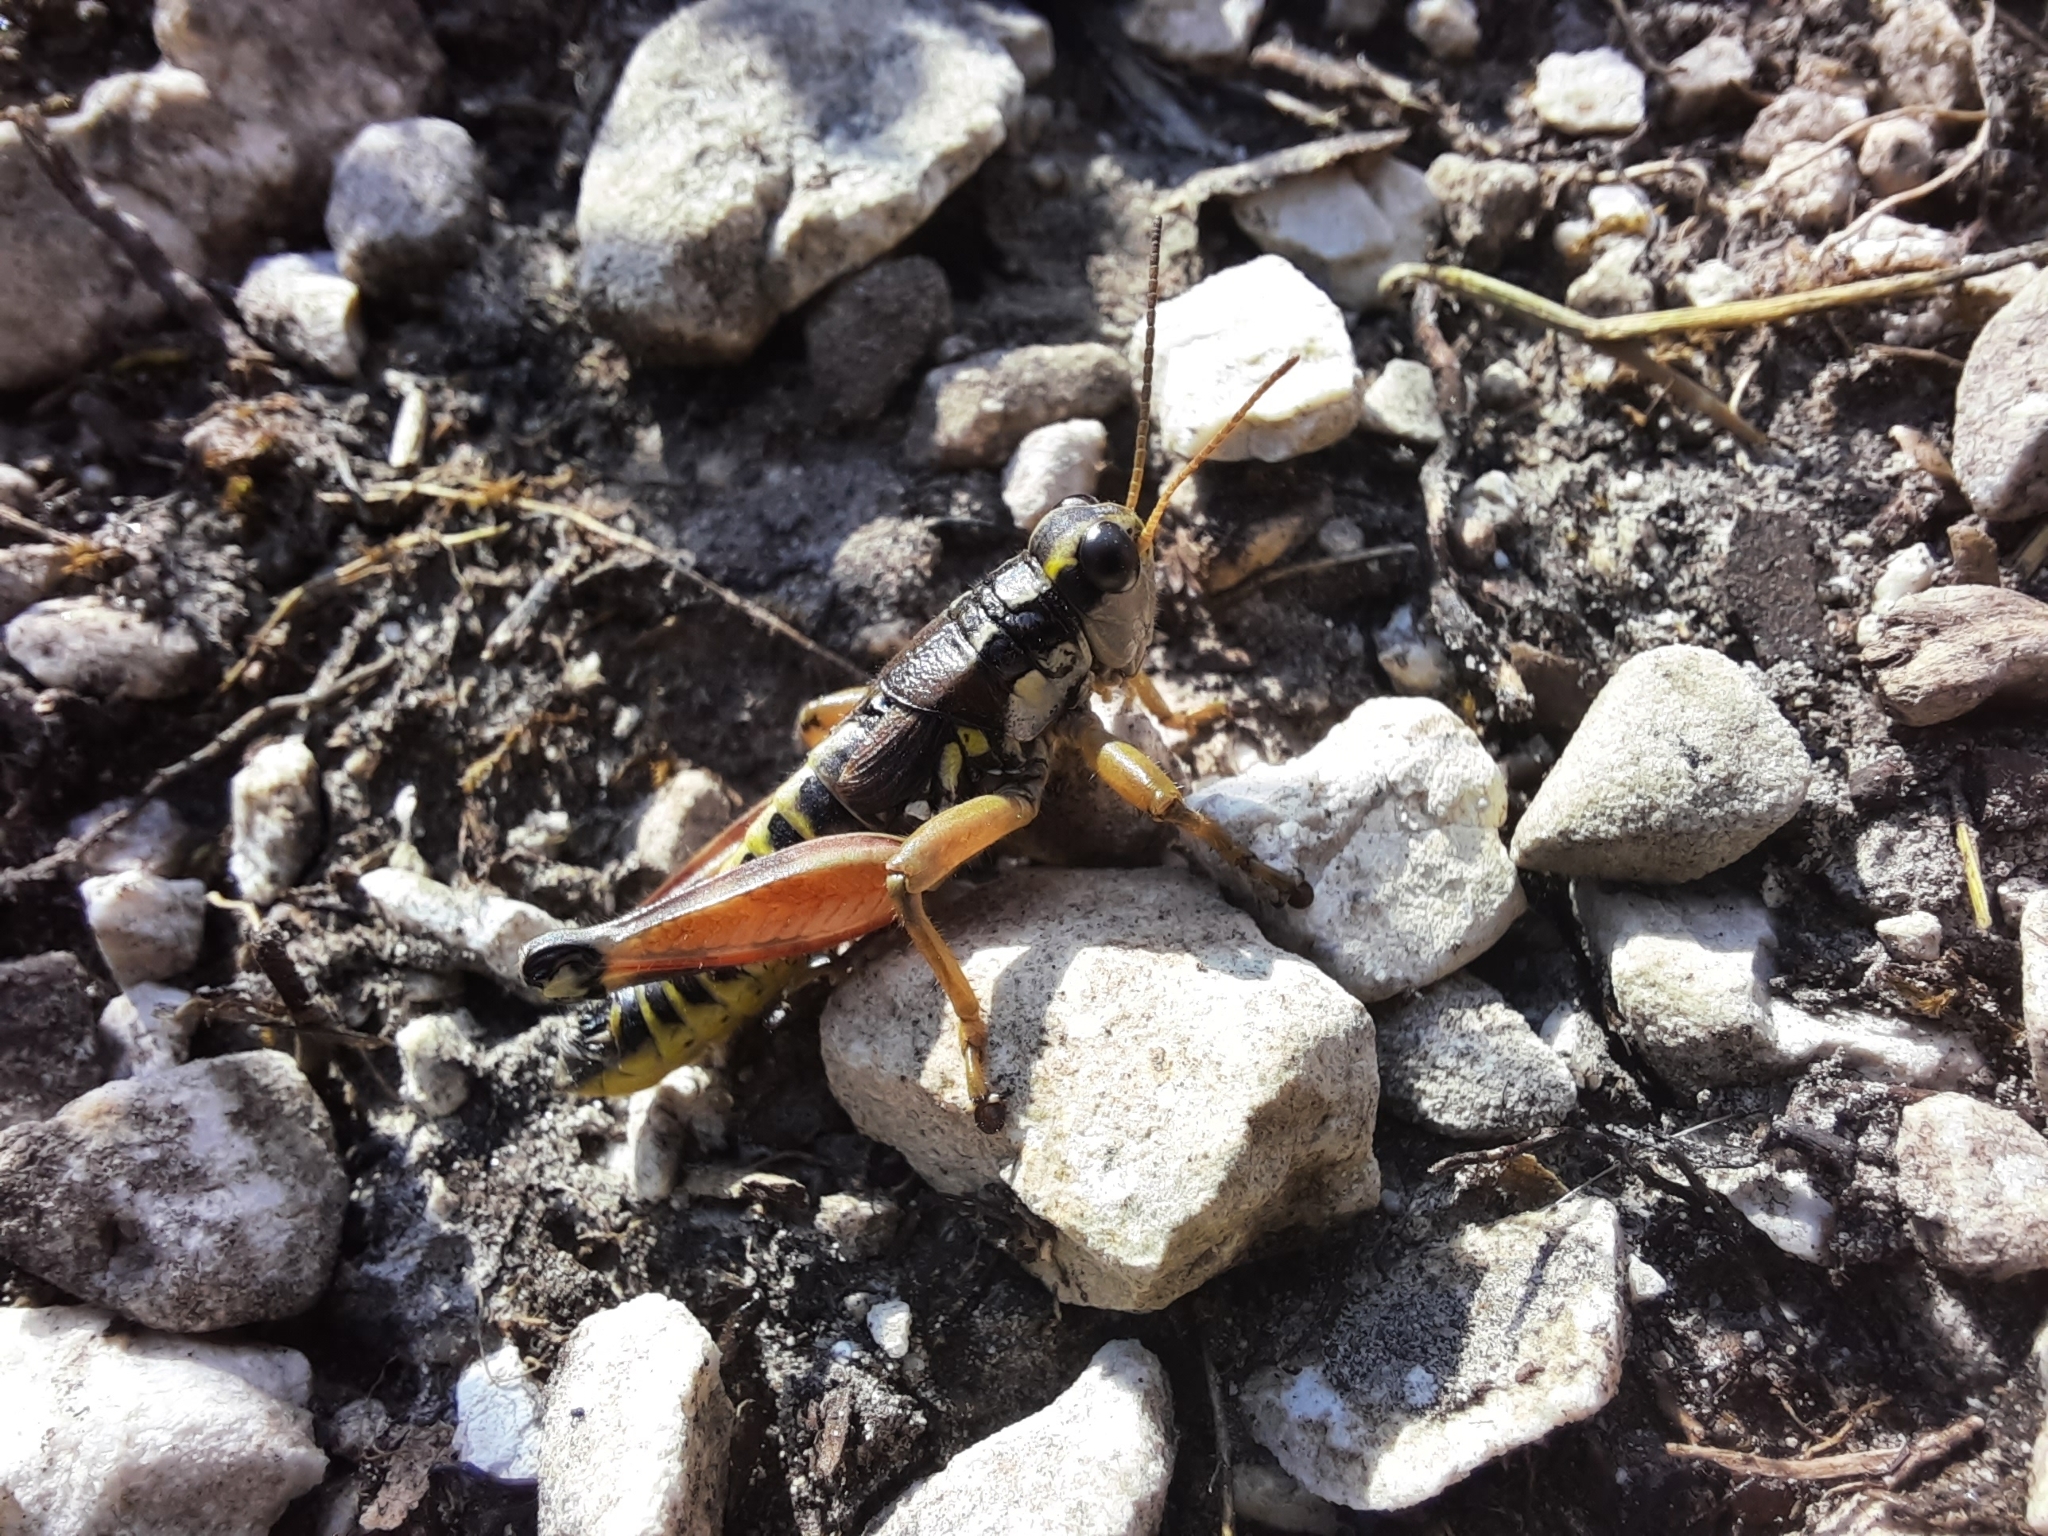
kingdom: Animalia
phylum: Arthropoda
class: Insecta
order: Orthoptera
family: Acrididae
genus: Podisma
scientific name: Podisma pedestris
